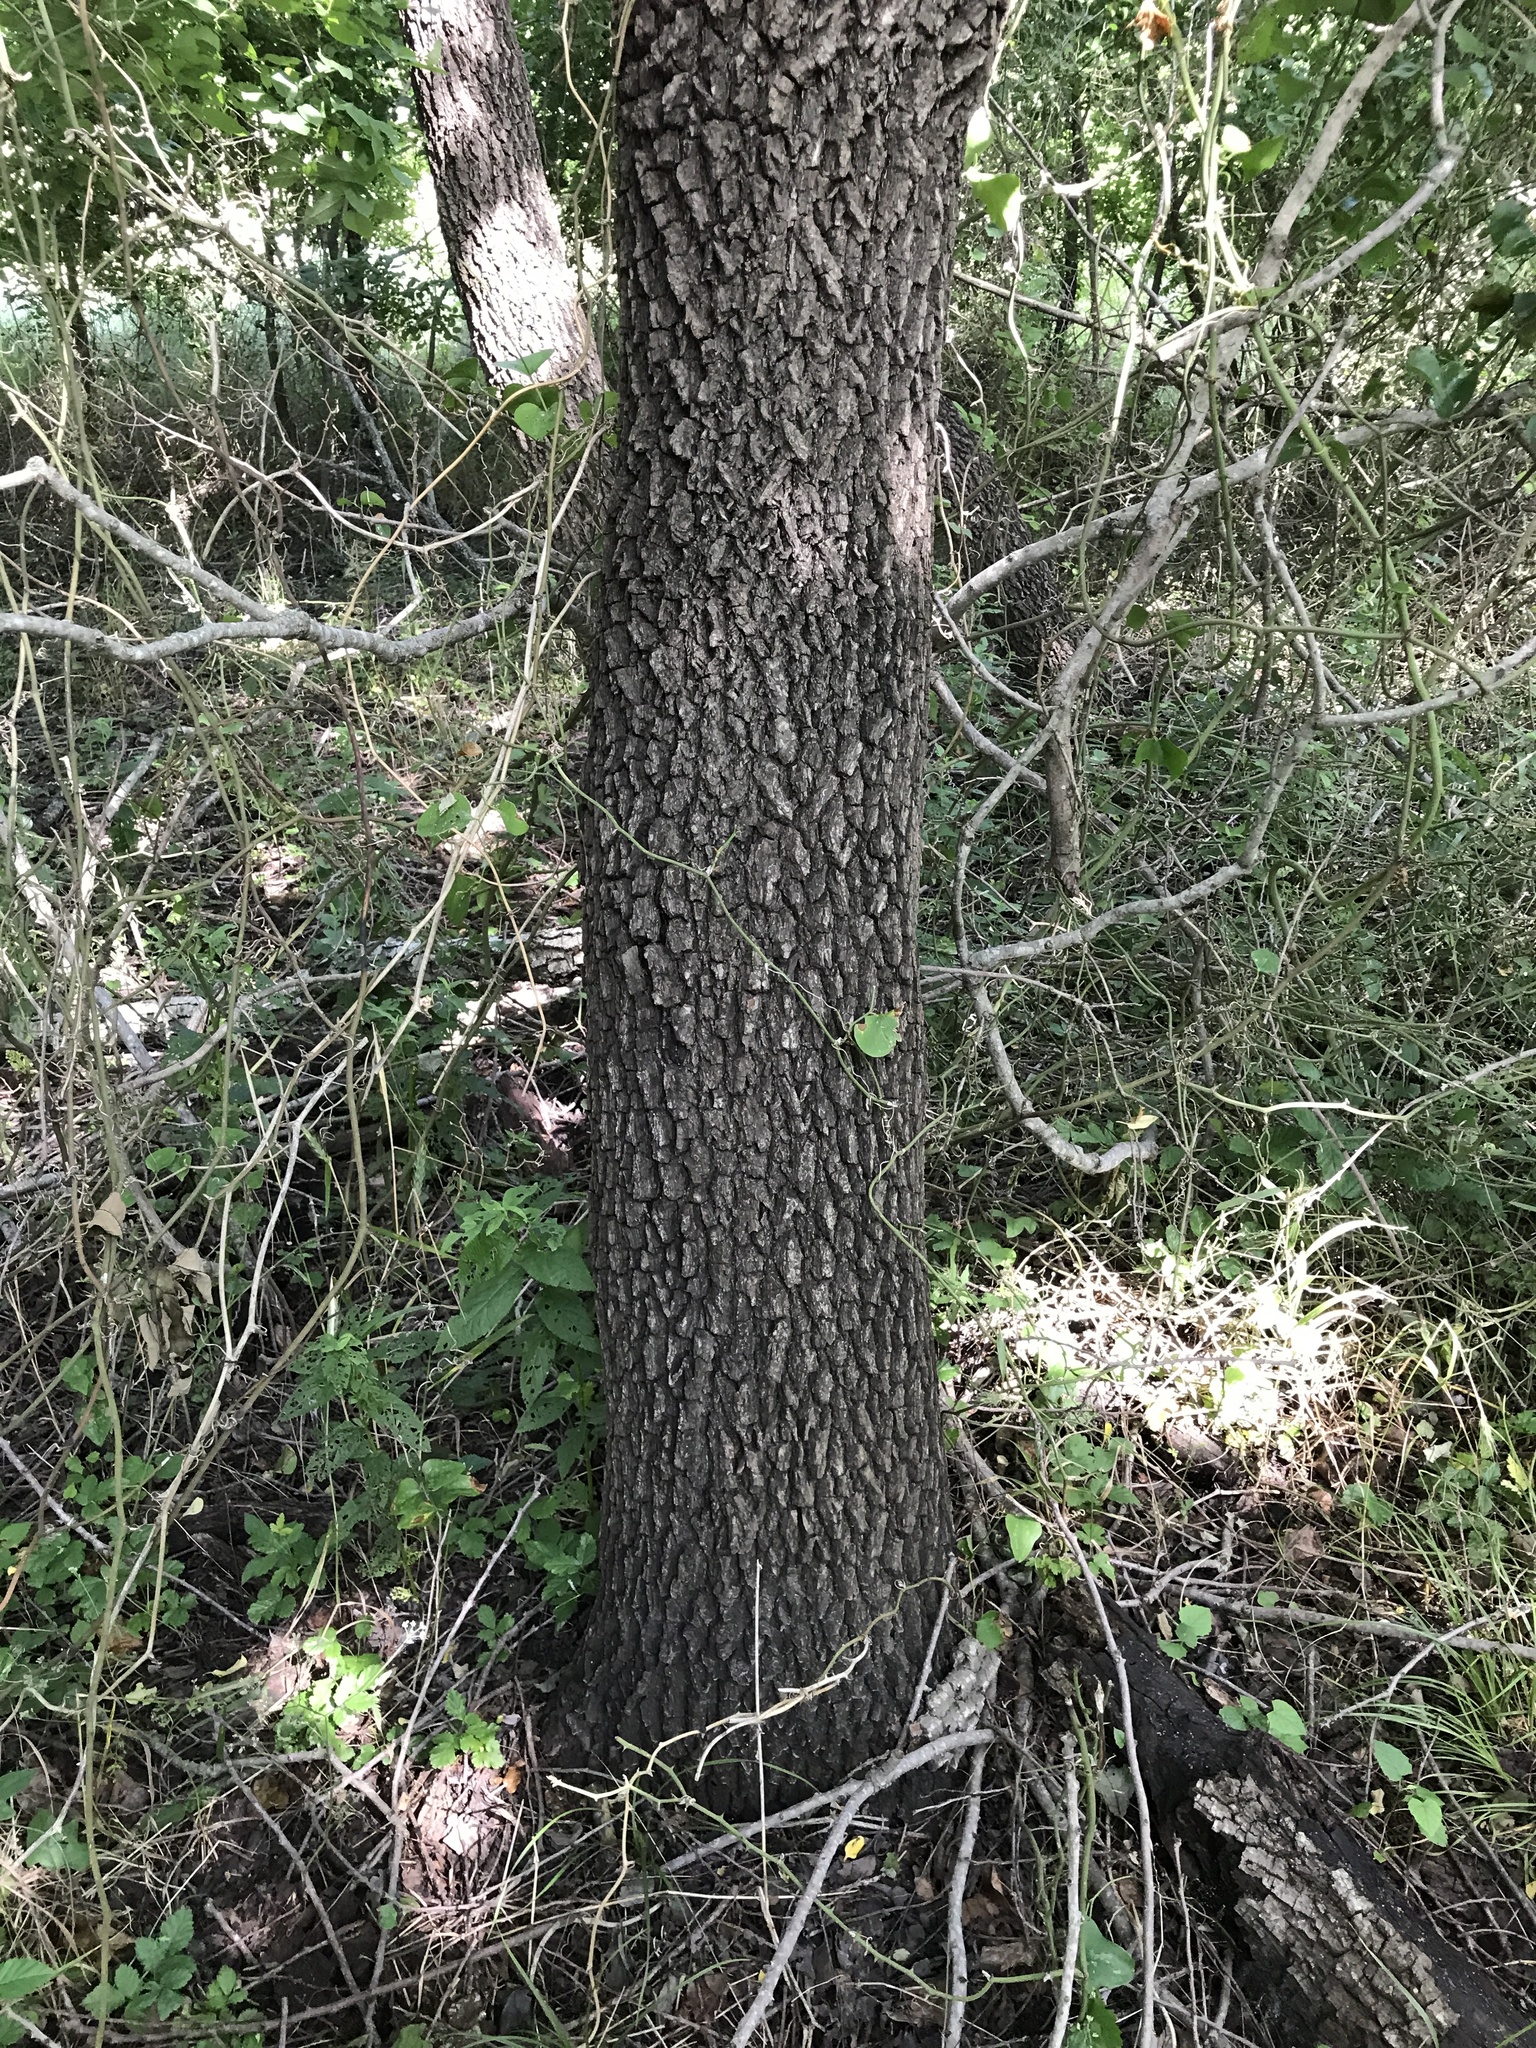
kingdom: Plantae
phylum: Tracheophyta
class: Magnoliopsida
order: Ericales
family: Ebenaceae
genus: Diospyros
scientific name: Diospyros virginiana
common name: Persimmon
